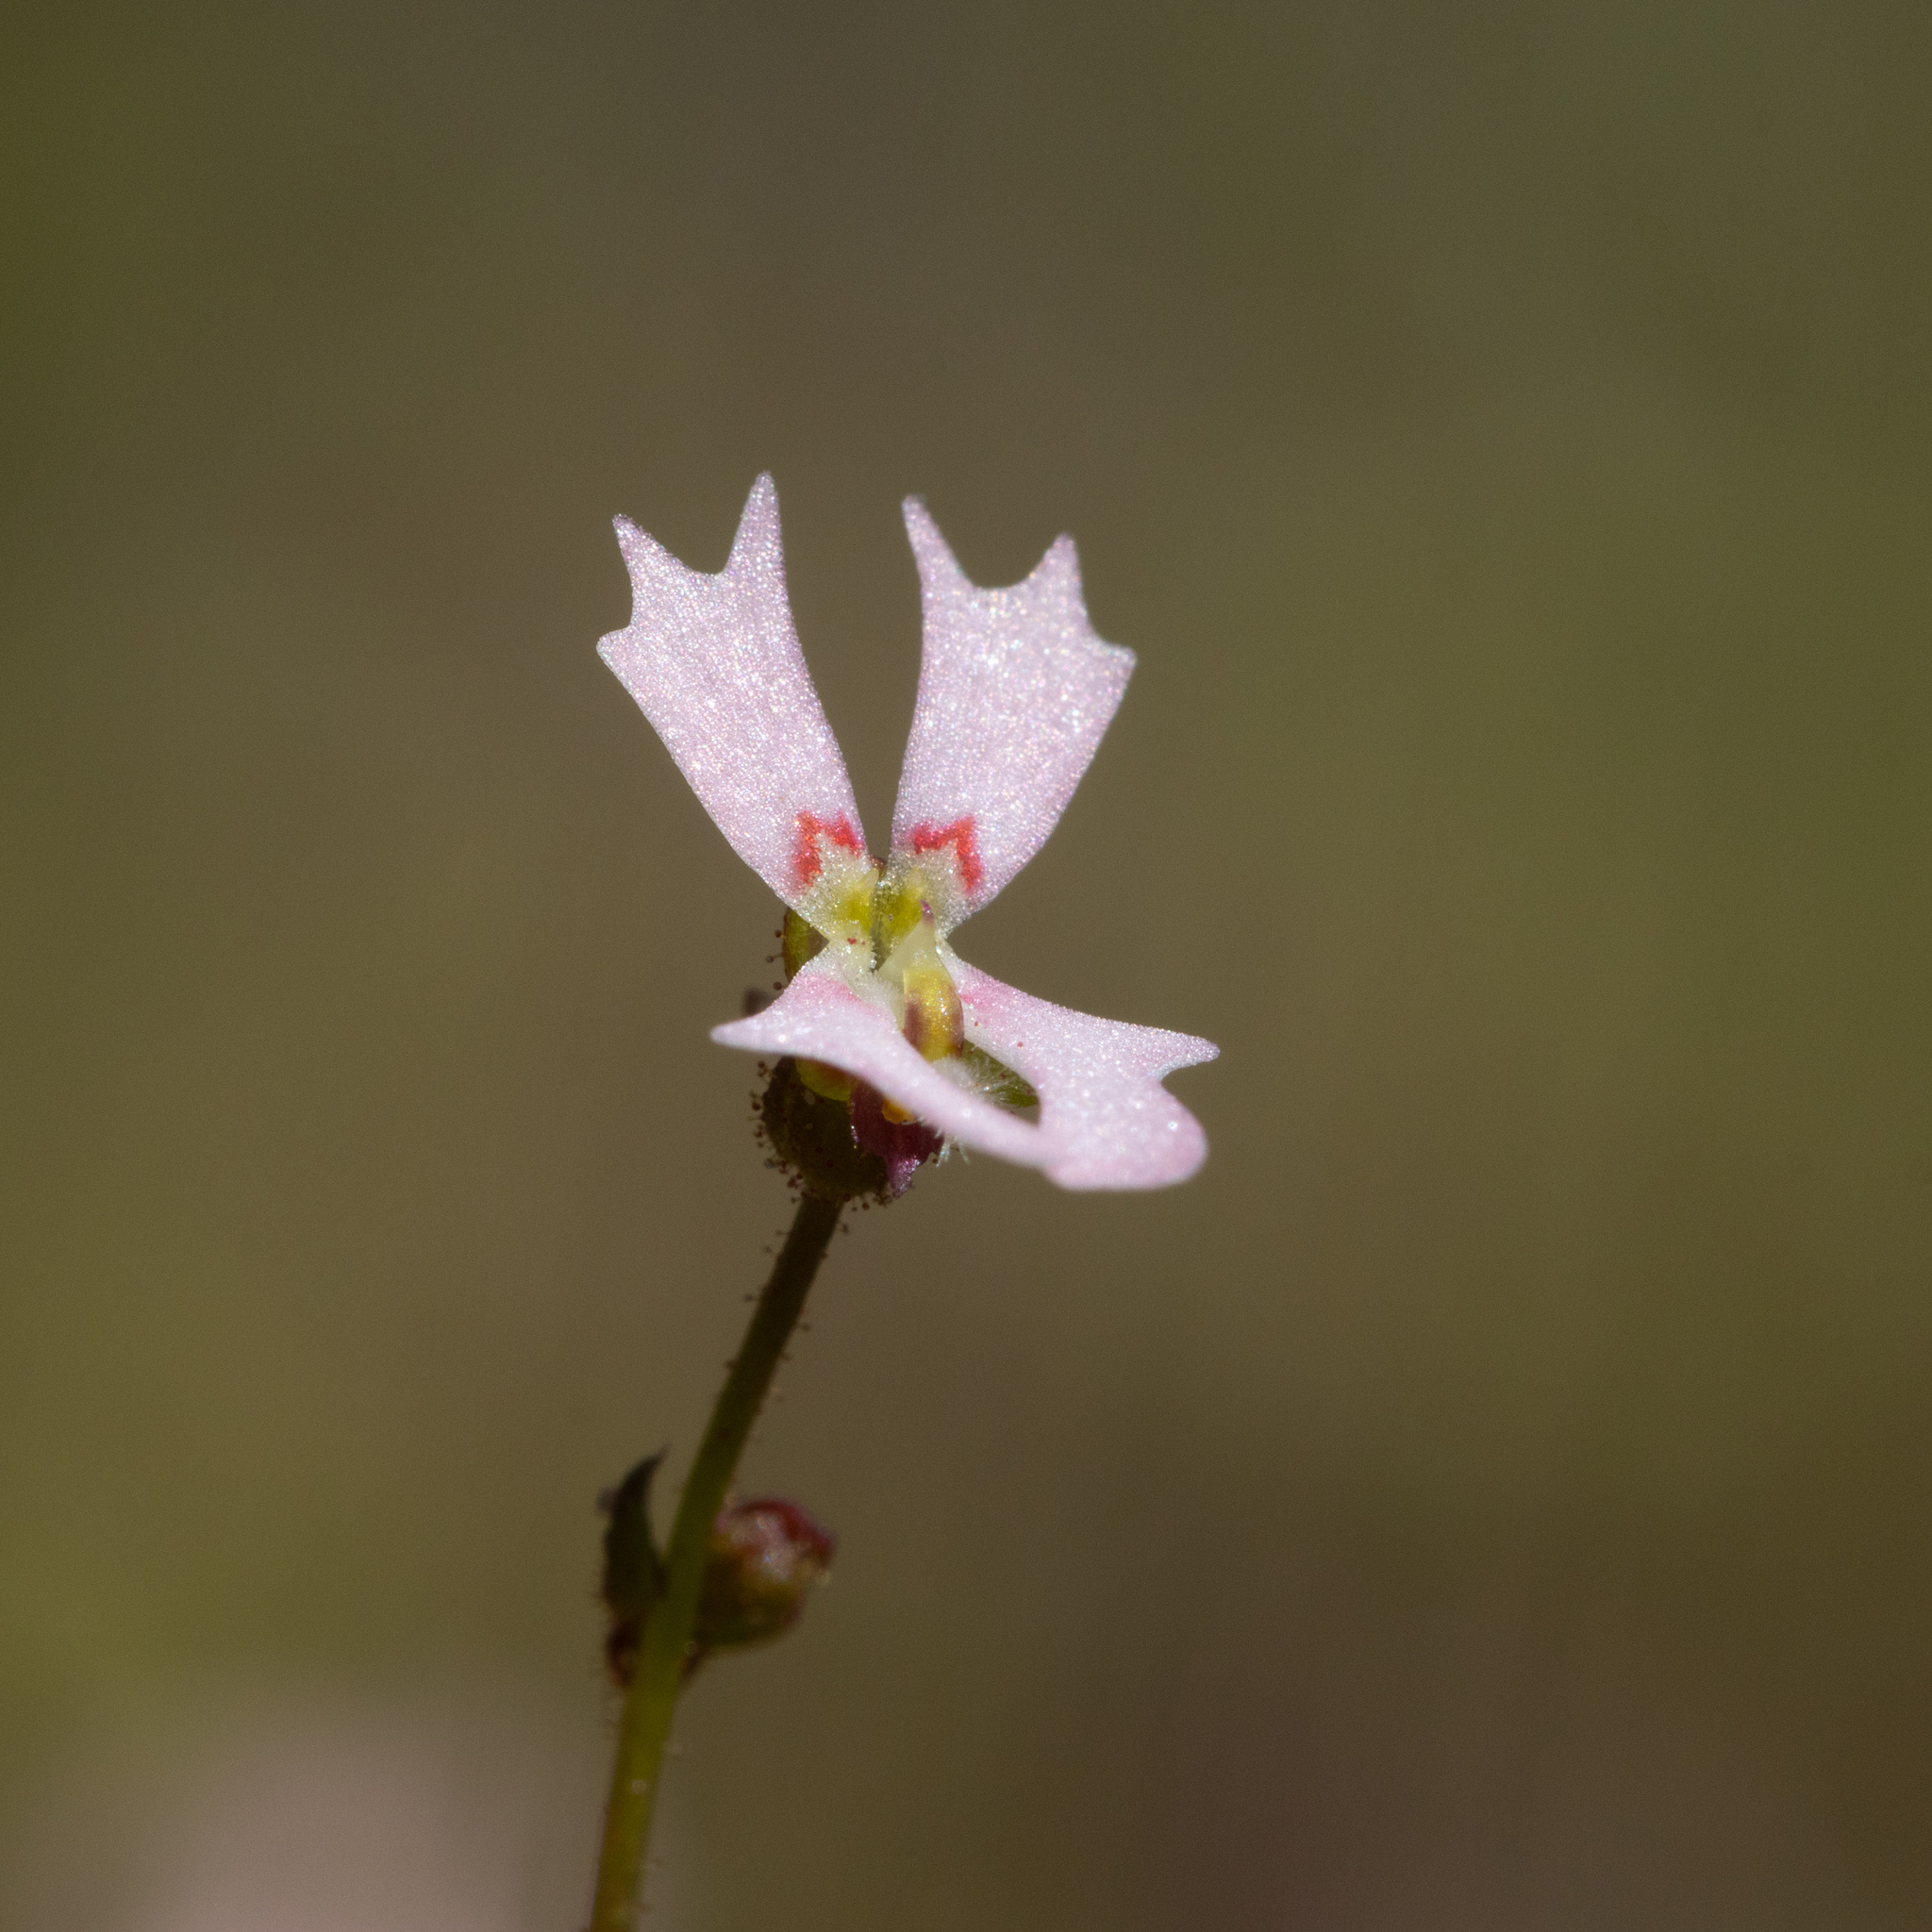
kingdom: Plantae
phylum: Tracheophyta
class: Magnoliopsida
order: Asterales
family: Stylidiaceae
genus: Stylidium
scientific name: Stylidium calcaratum
